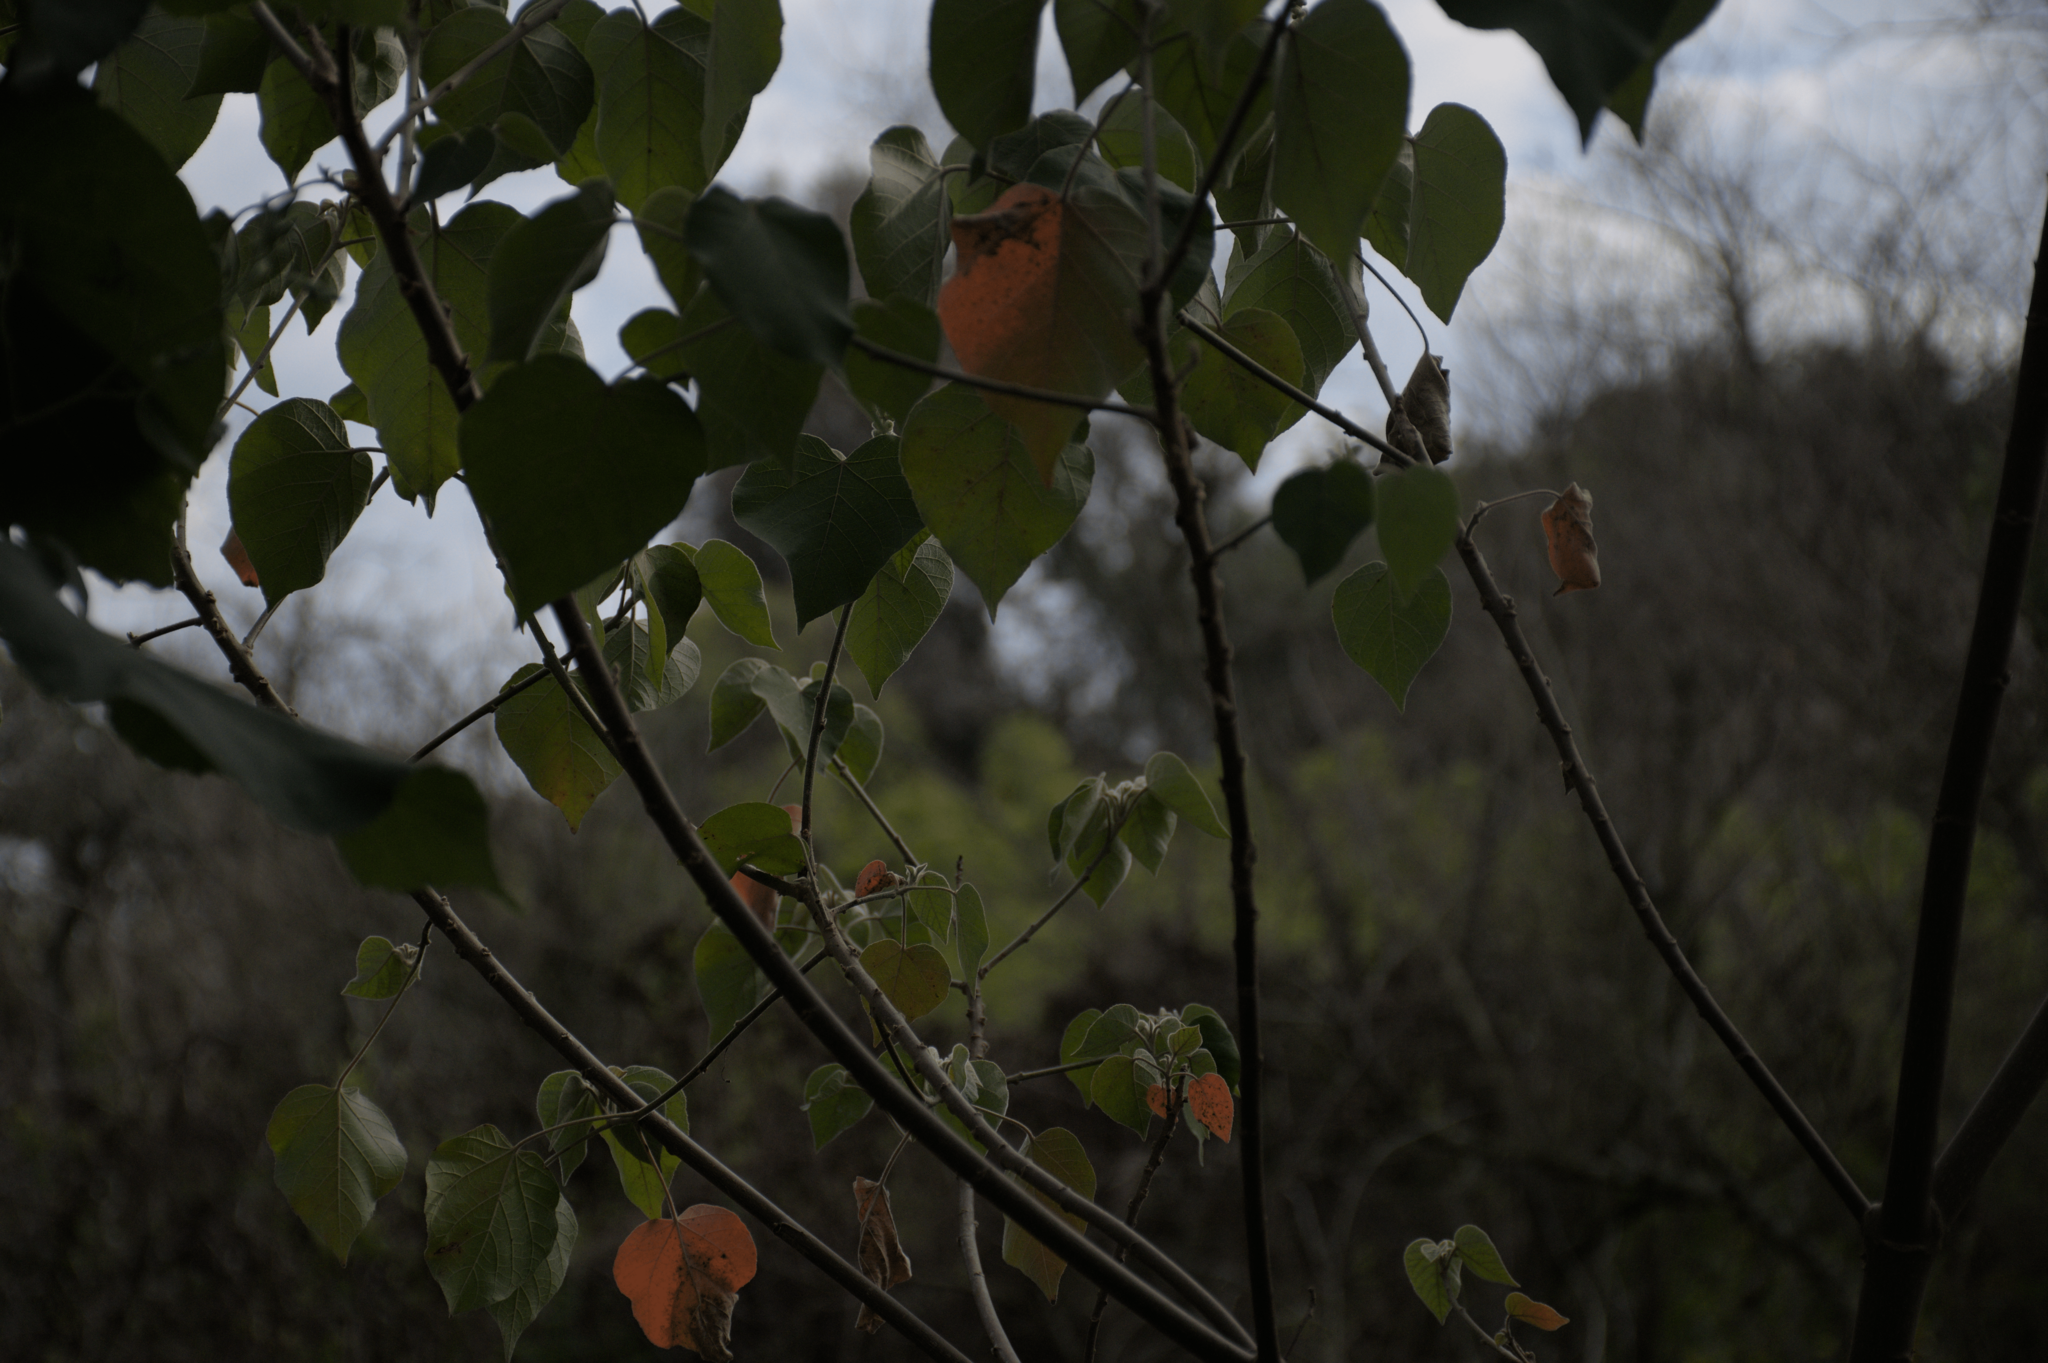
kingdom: Plantae
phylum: Tracheophyta
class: Magnoliopsida
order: Malpighiales
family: Euphorbiaceae
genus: Croton
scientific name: Croton urucurana
